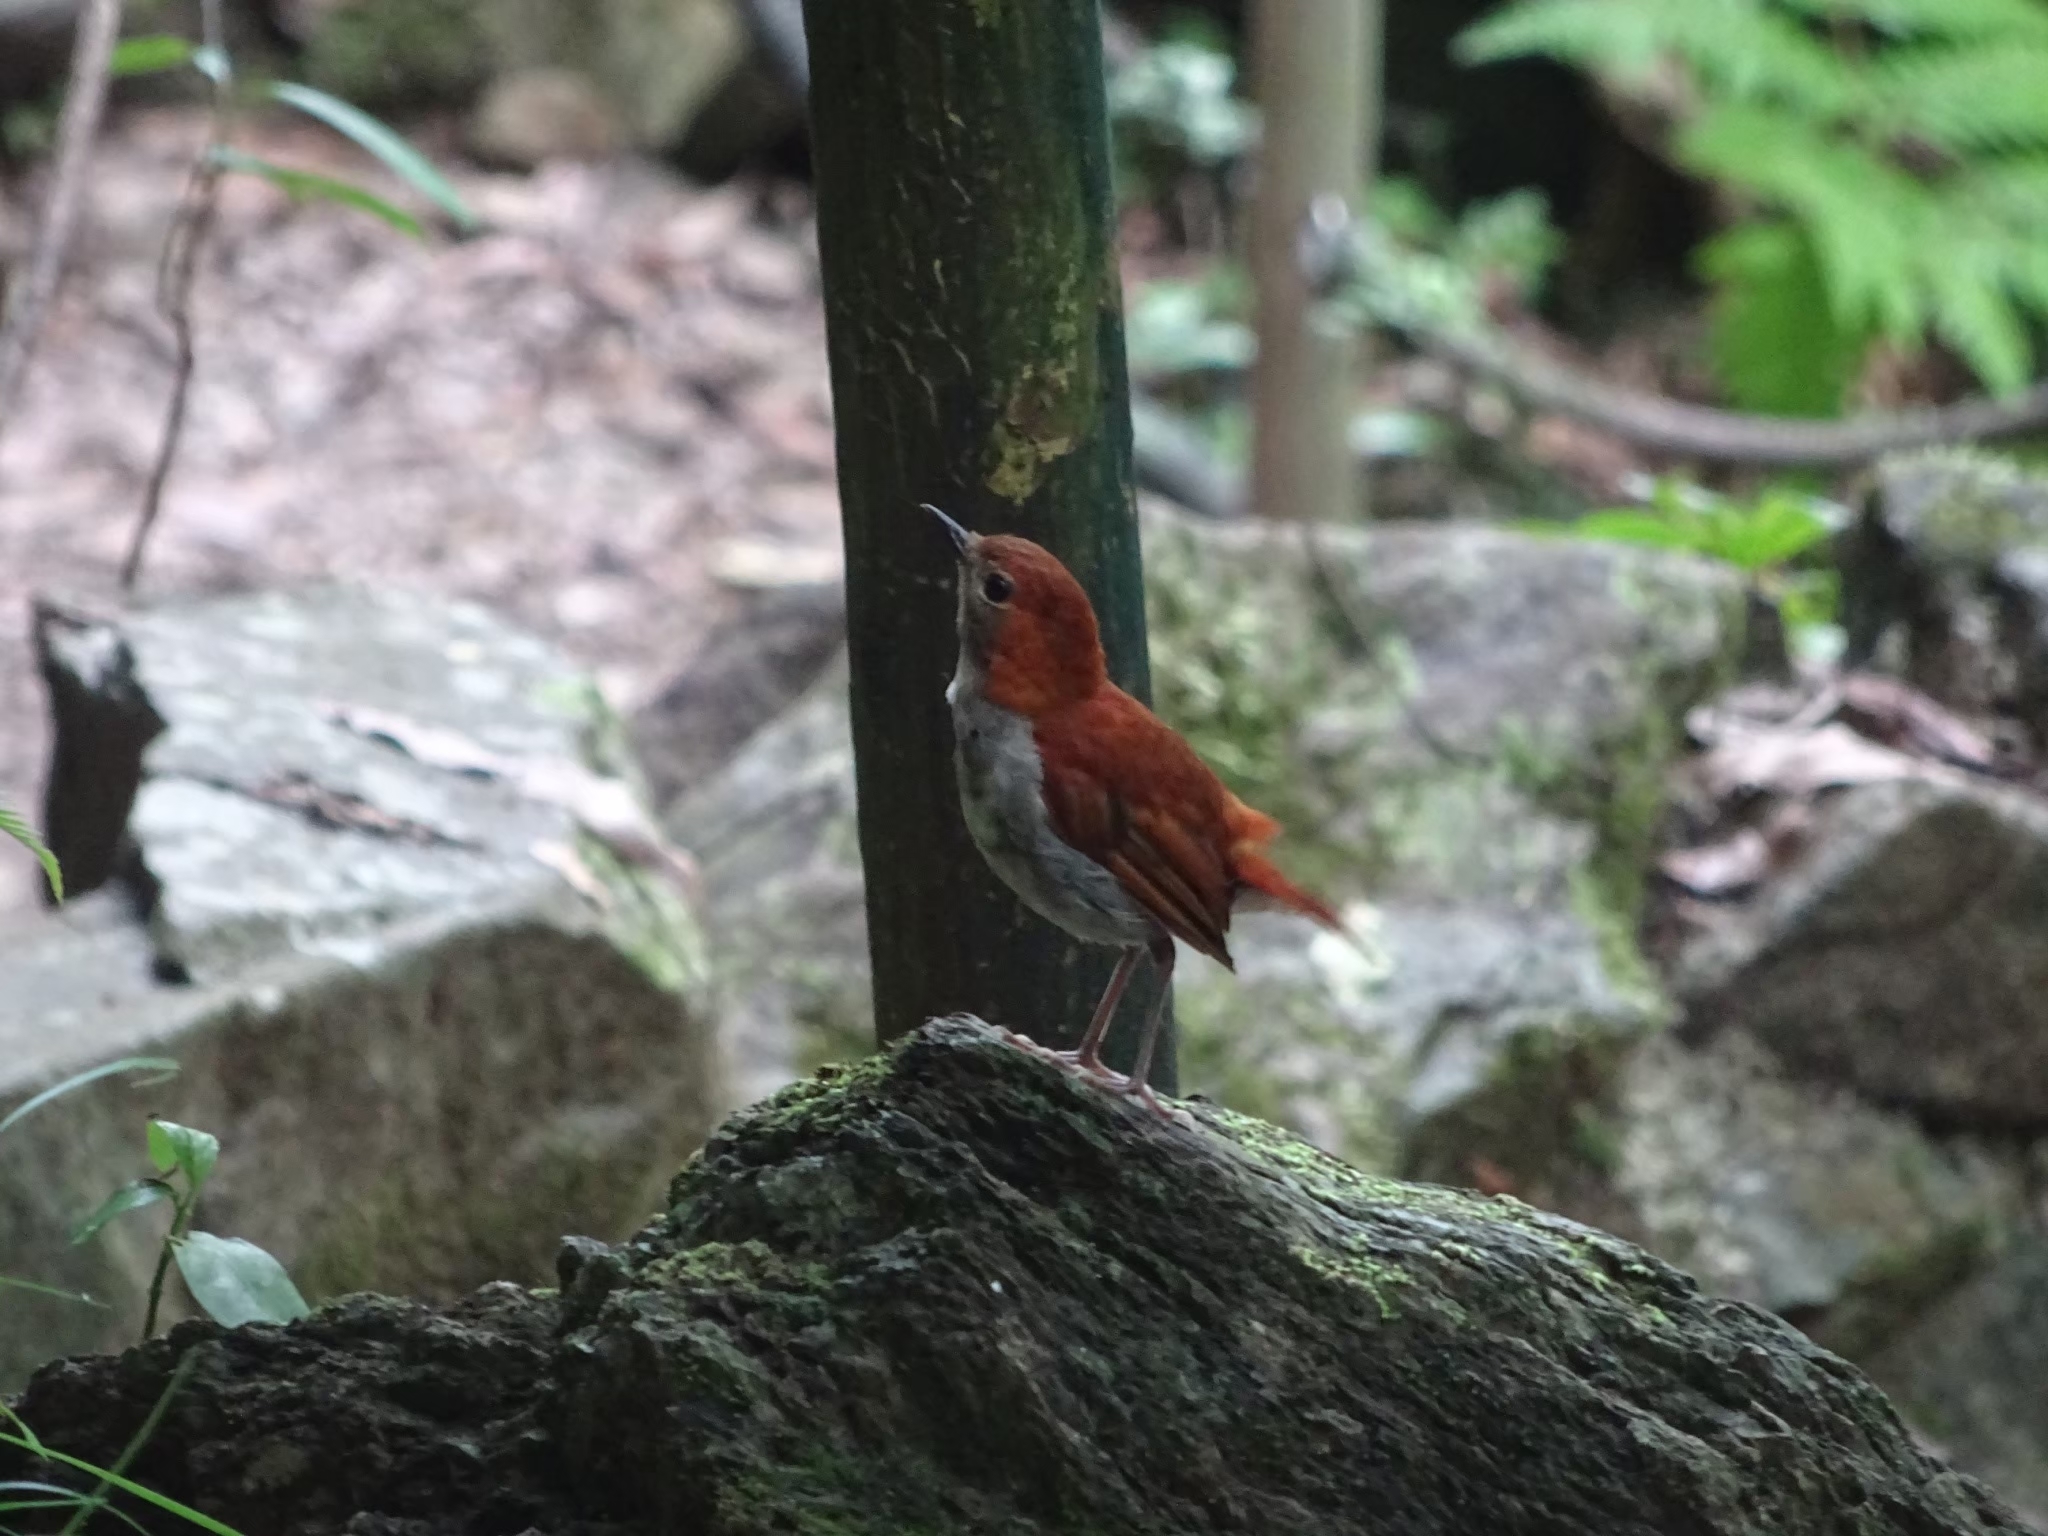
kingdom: Animalia
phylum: Chordata
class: Aves
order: Passeriformes
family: Muscicapidae
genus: Erithacus
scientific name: Erithacus komadori
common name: Ryukyu robin
